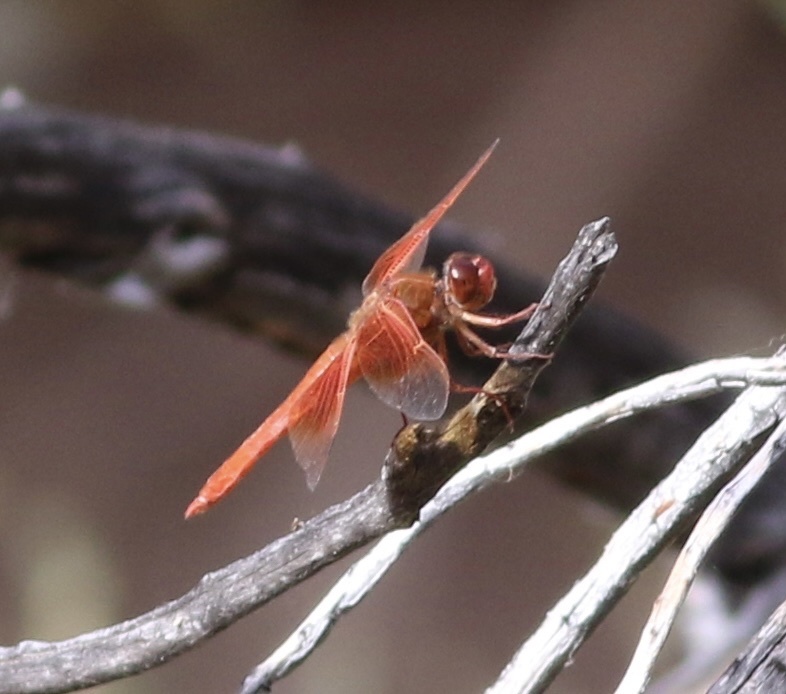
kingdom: Animalia
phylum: Arthropoda
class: Insecta
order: Odonata
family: Libellulidae
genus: Libellula
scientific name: Libellula saturata
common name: Flame skimmer
